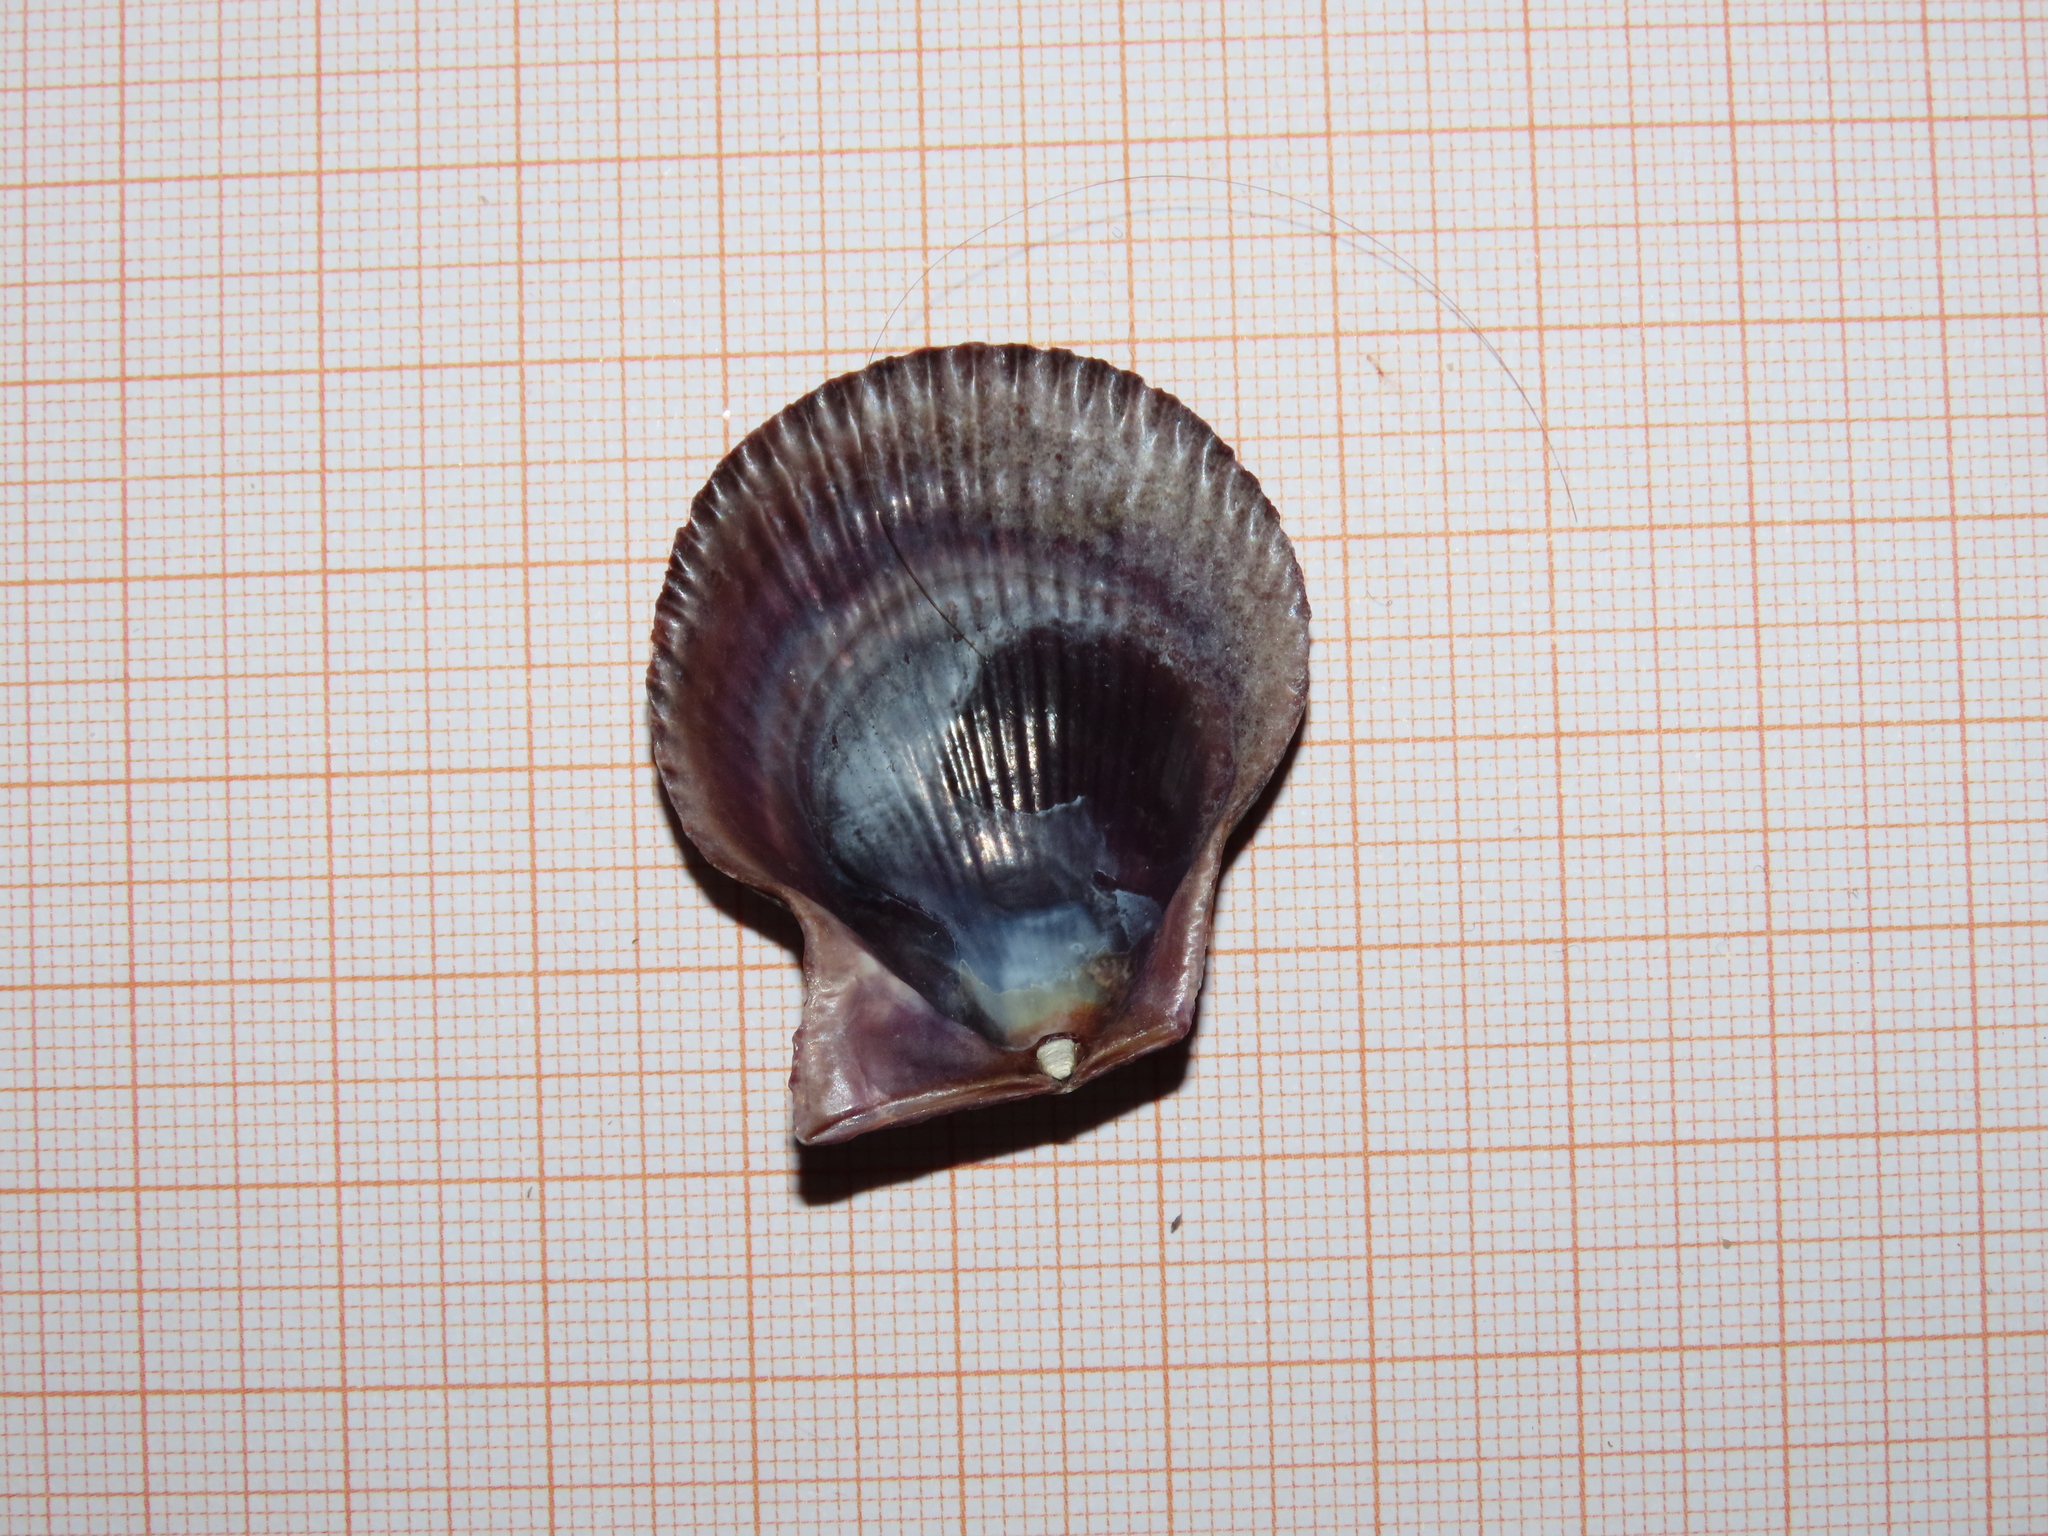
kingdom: Animalia
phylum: Mollusca
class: Bivalvia
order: Pectinida
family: Pectinidae
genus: Mimachlamys
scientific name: Mimachlamys varia
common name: Variegated scallop
